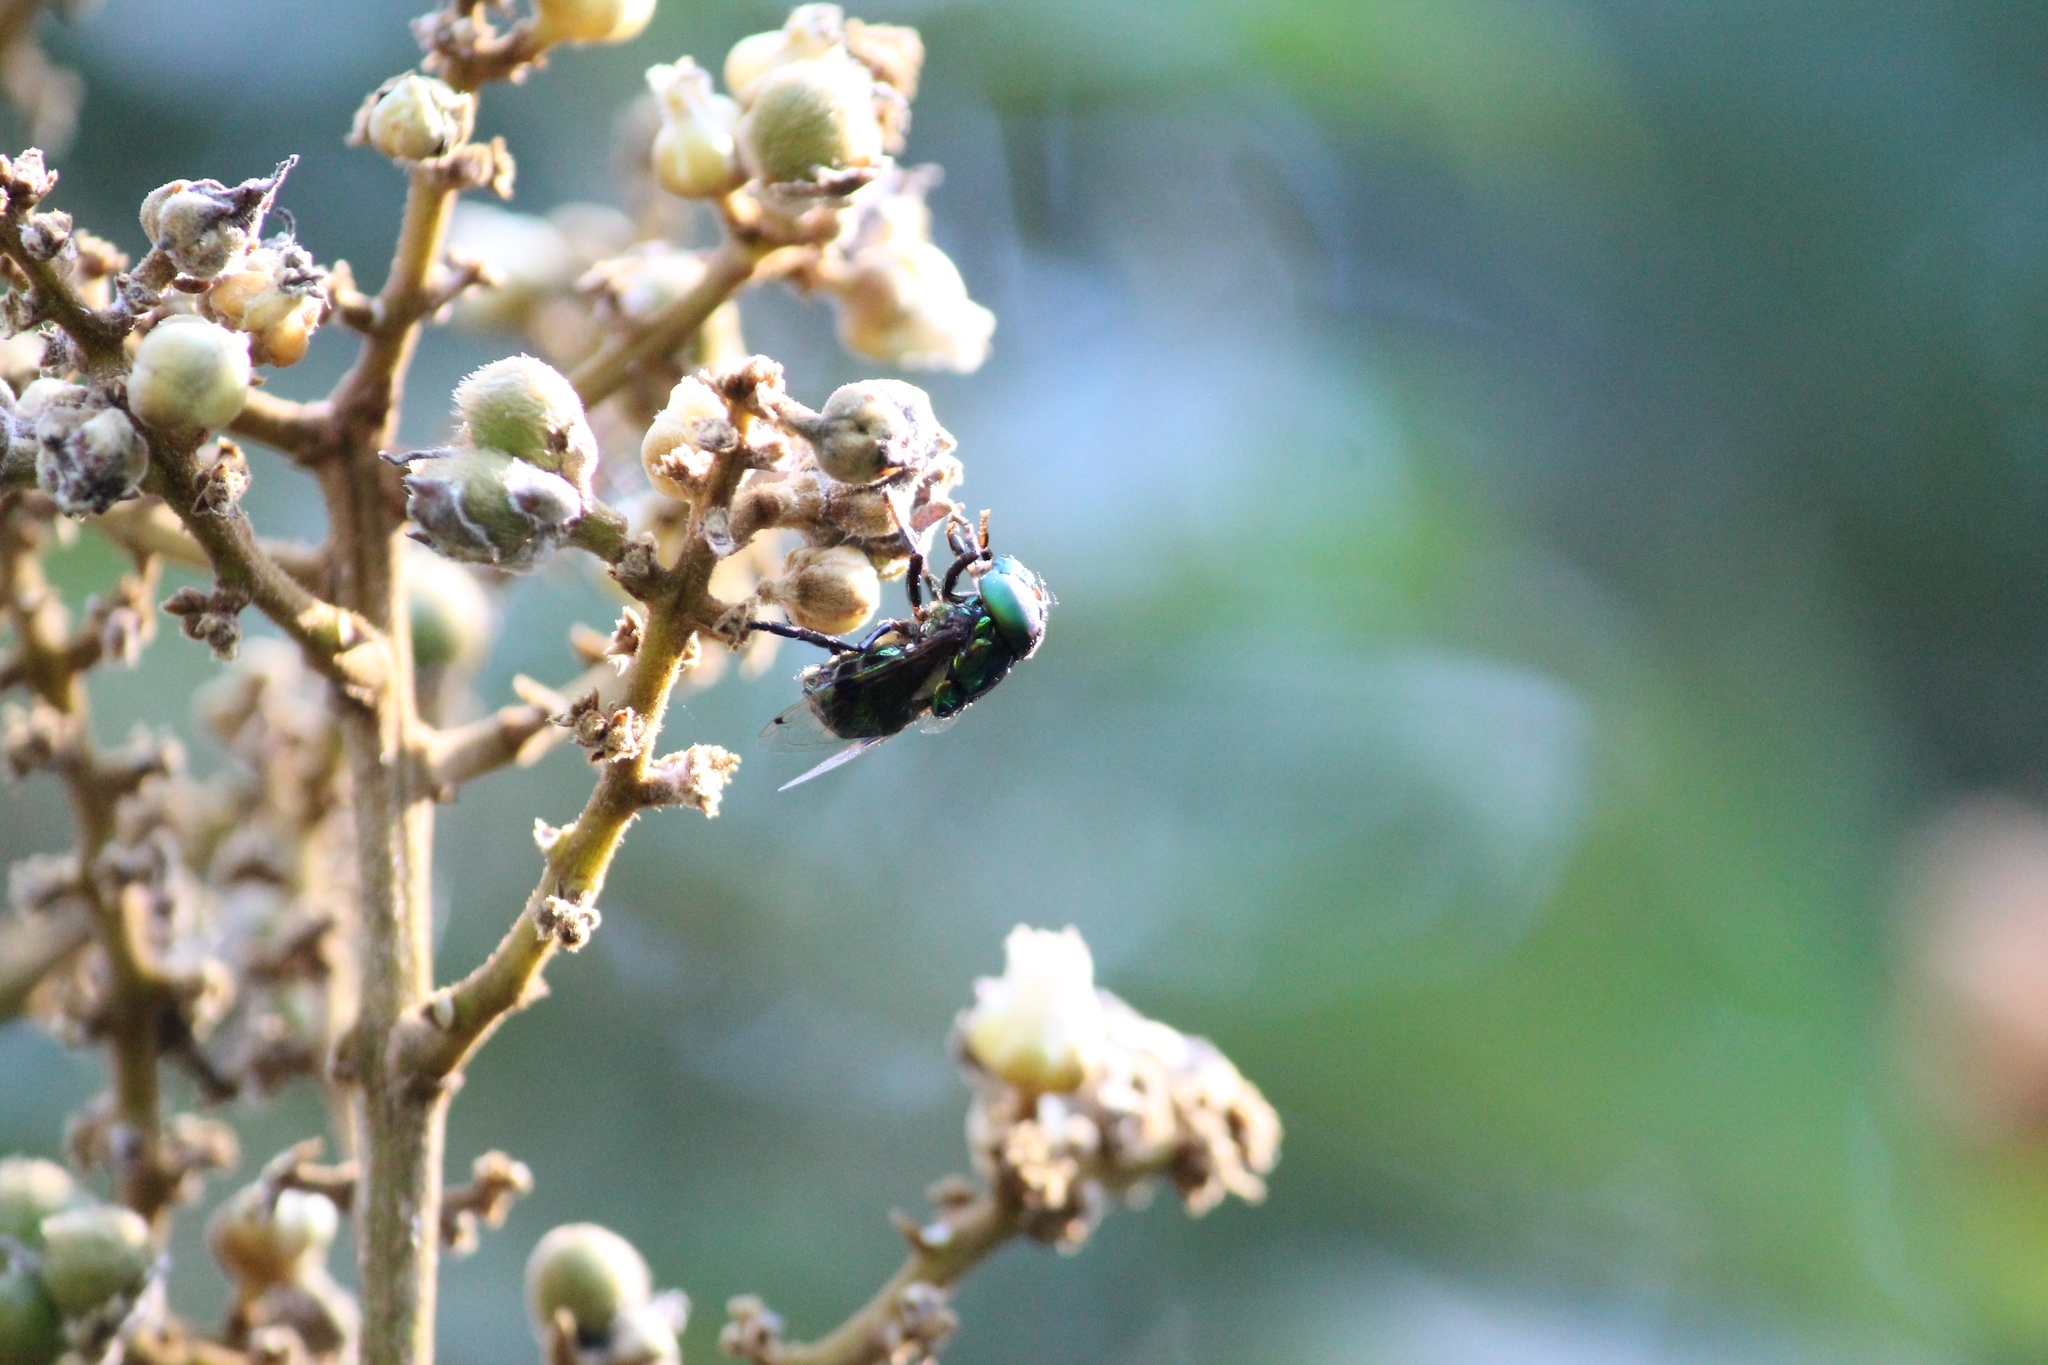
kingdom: Animalia
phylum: Arthropoda
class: Insecta
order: Diptera
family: Syrphidae
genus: Ornidia
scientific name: Ornidia obesa
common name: Syrphid fly
